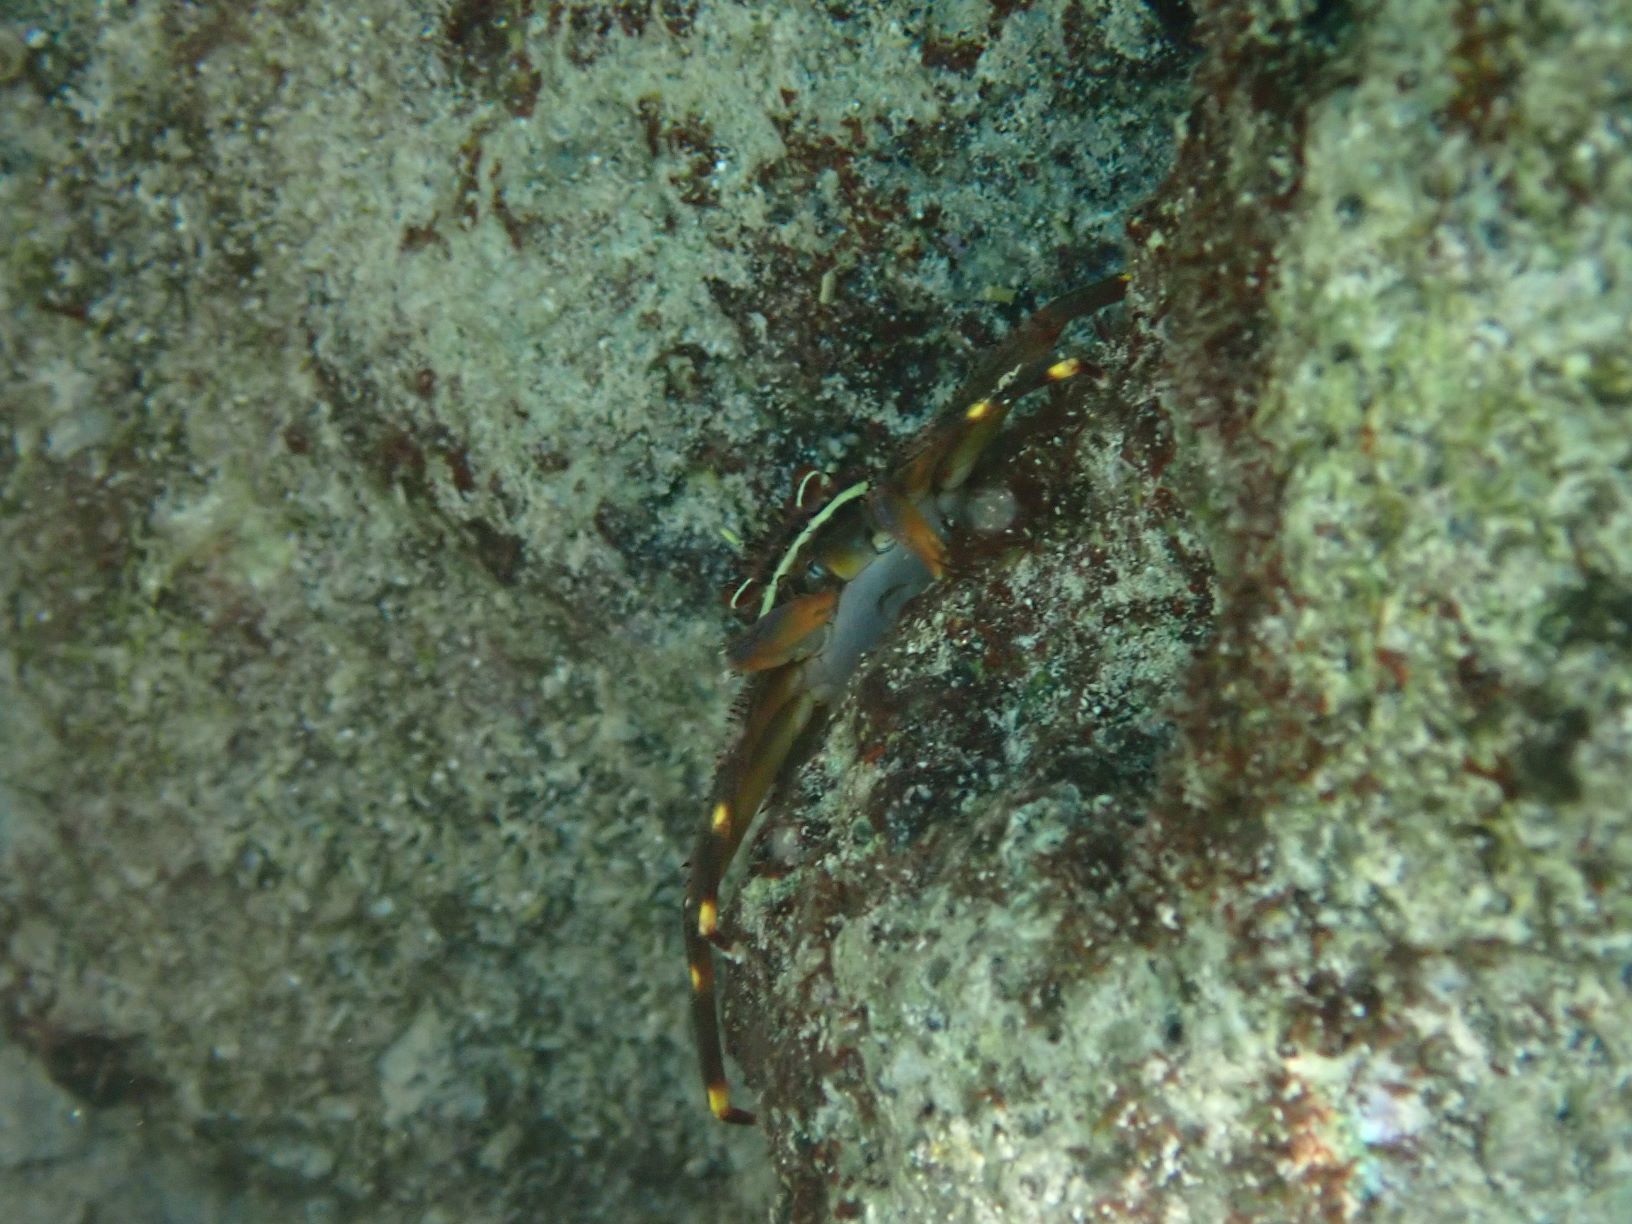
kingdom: Animalia
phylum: Arthropoda
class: Malacostraca
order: Decapoda
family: Percnidae
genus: Percnon
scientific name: Percnon gibbesi
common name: Nimble spray crab
